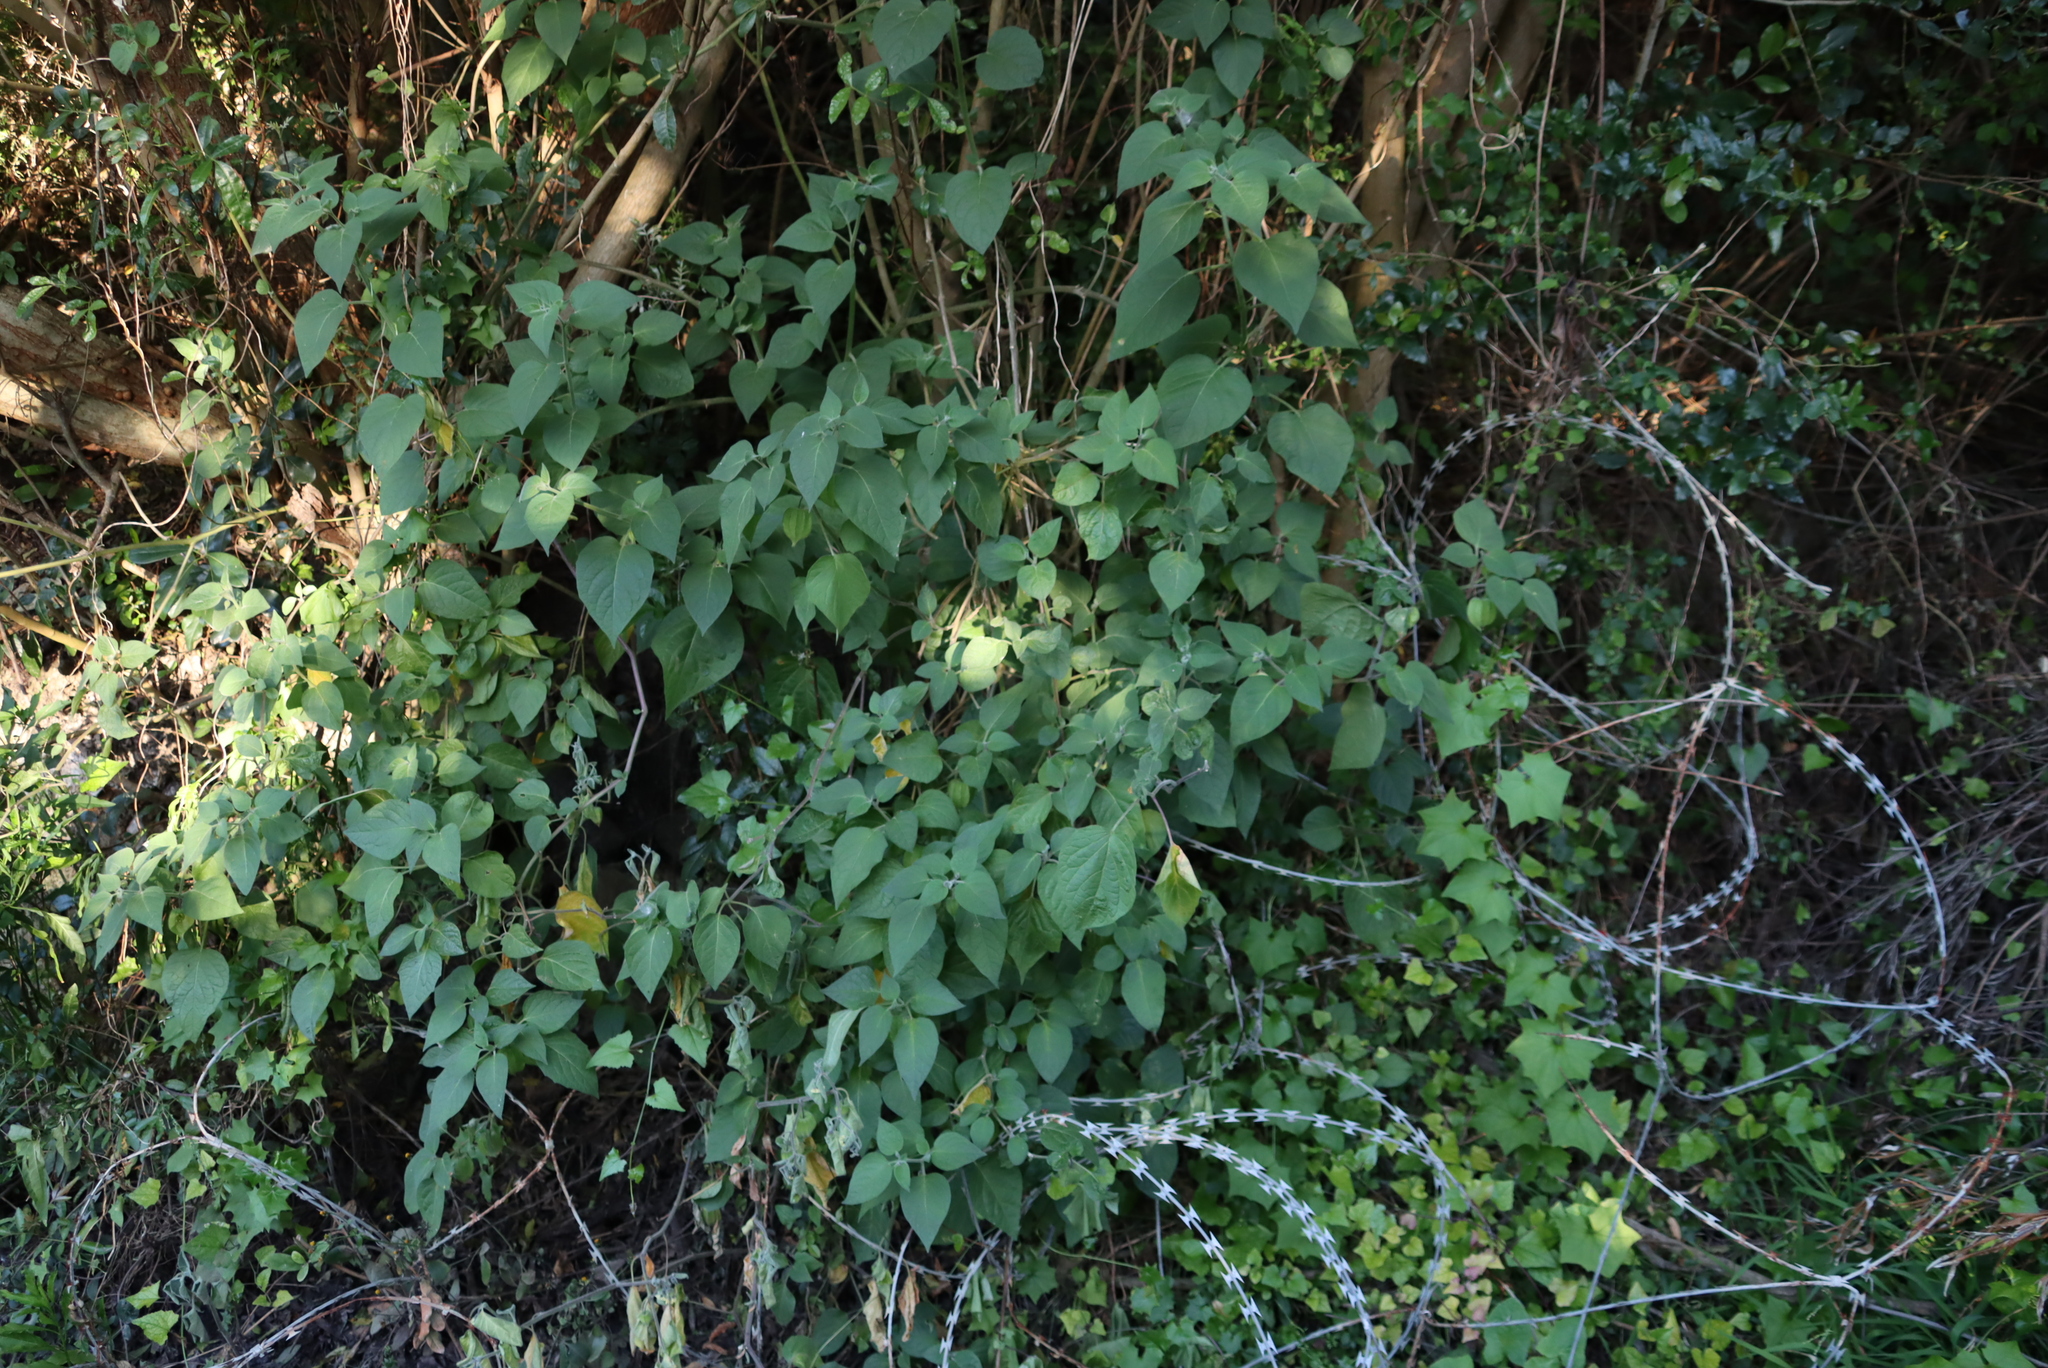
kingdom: Plantae
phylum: Tracheophyta
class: Magnoliopsida
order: Solanales
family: Solanaceae
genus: Physalis
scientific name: Physalis peruviana
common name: Cape-gooseberry
